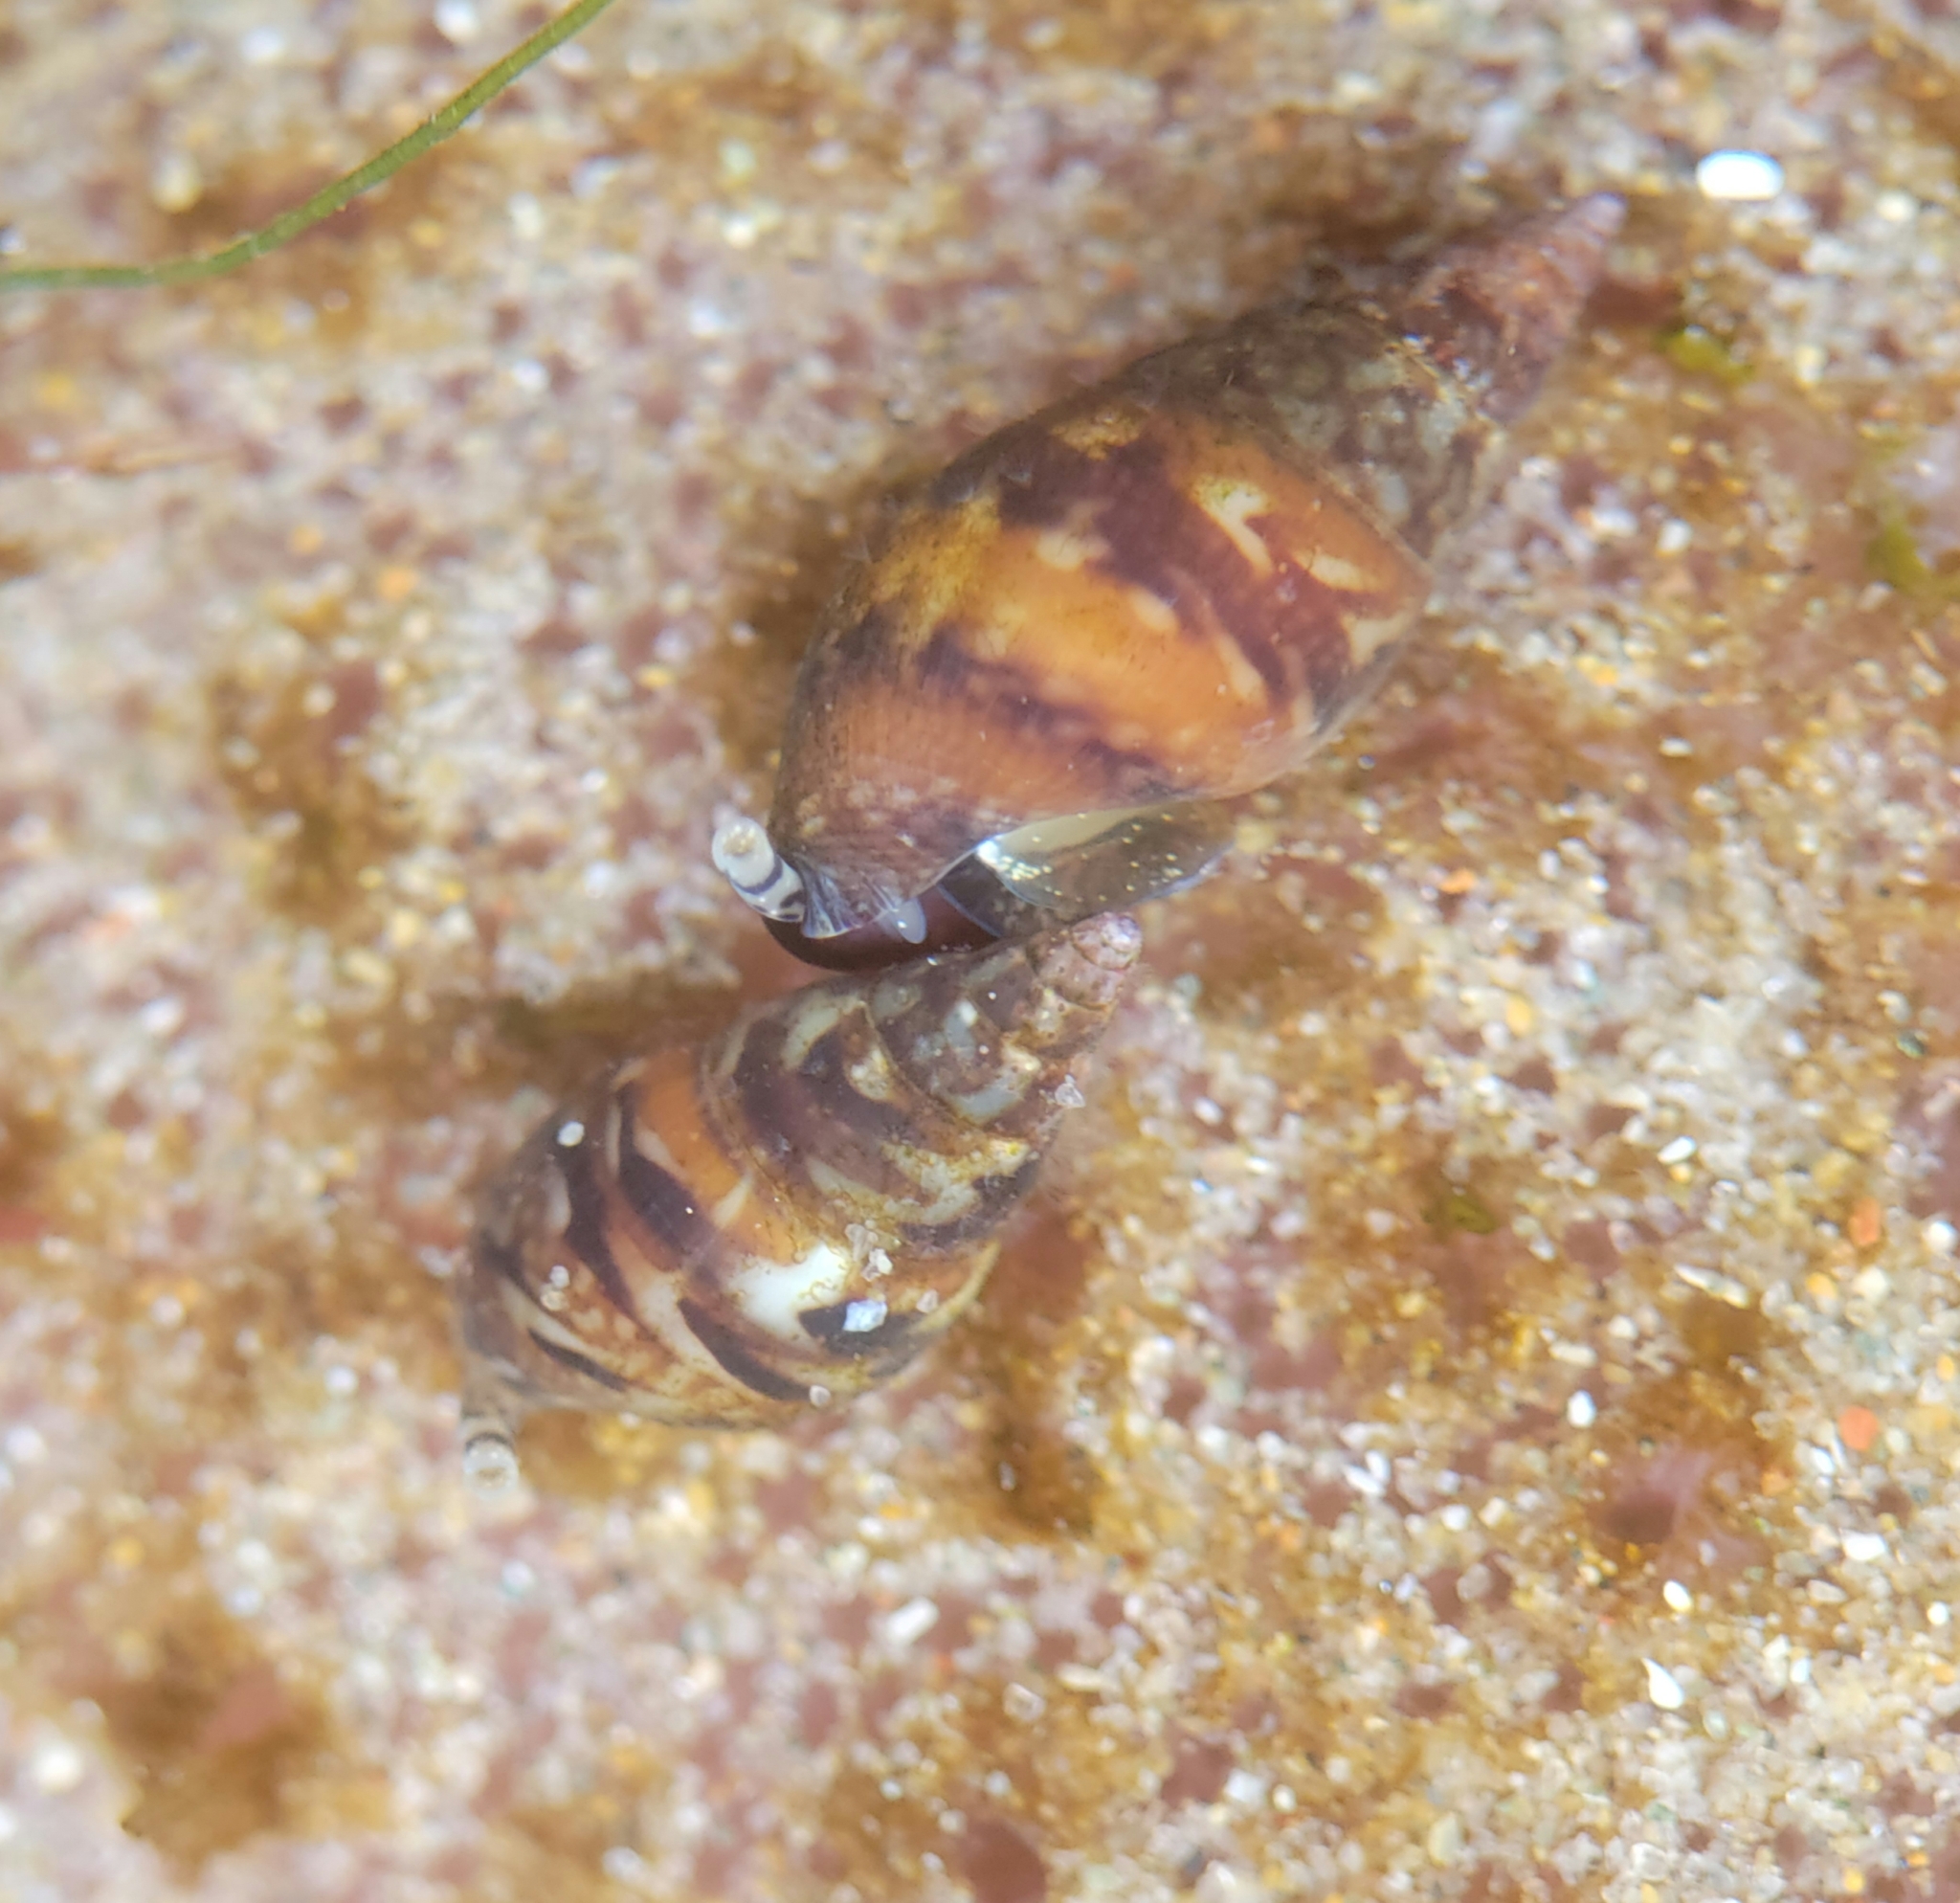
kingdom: Animalia
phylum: Mollusca
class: Gastropoda
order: Neogastropoda
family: Columbellidae
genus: Alia
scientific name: Alia carinata
